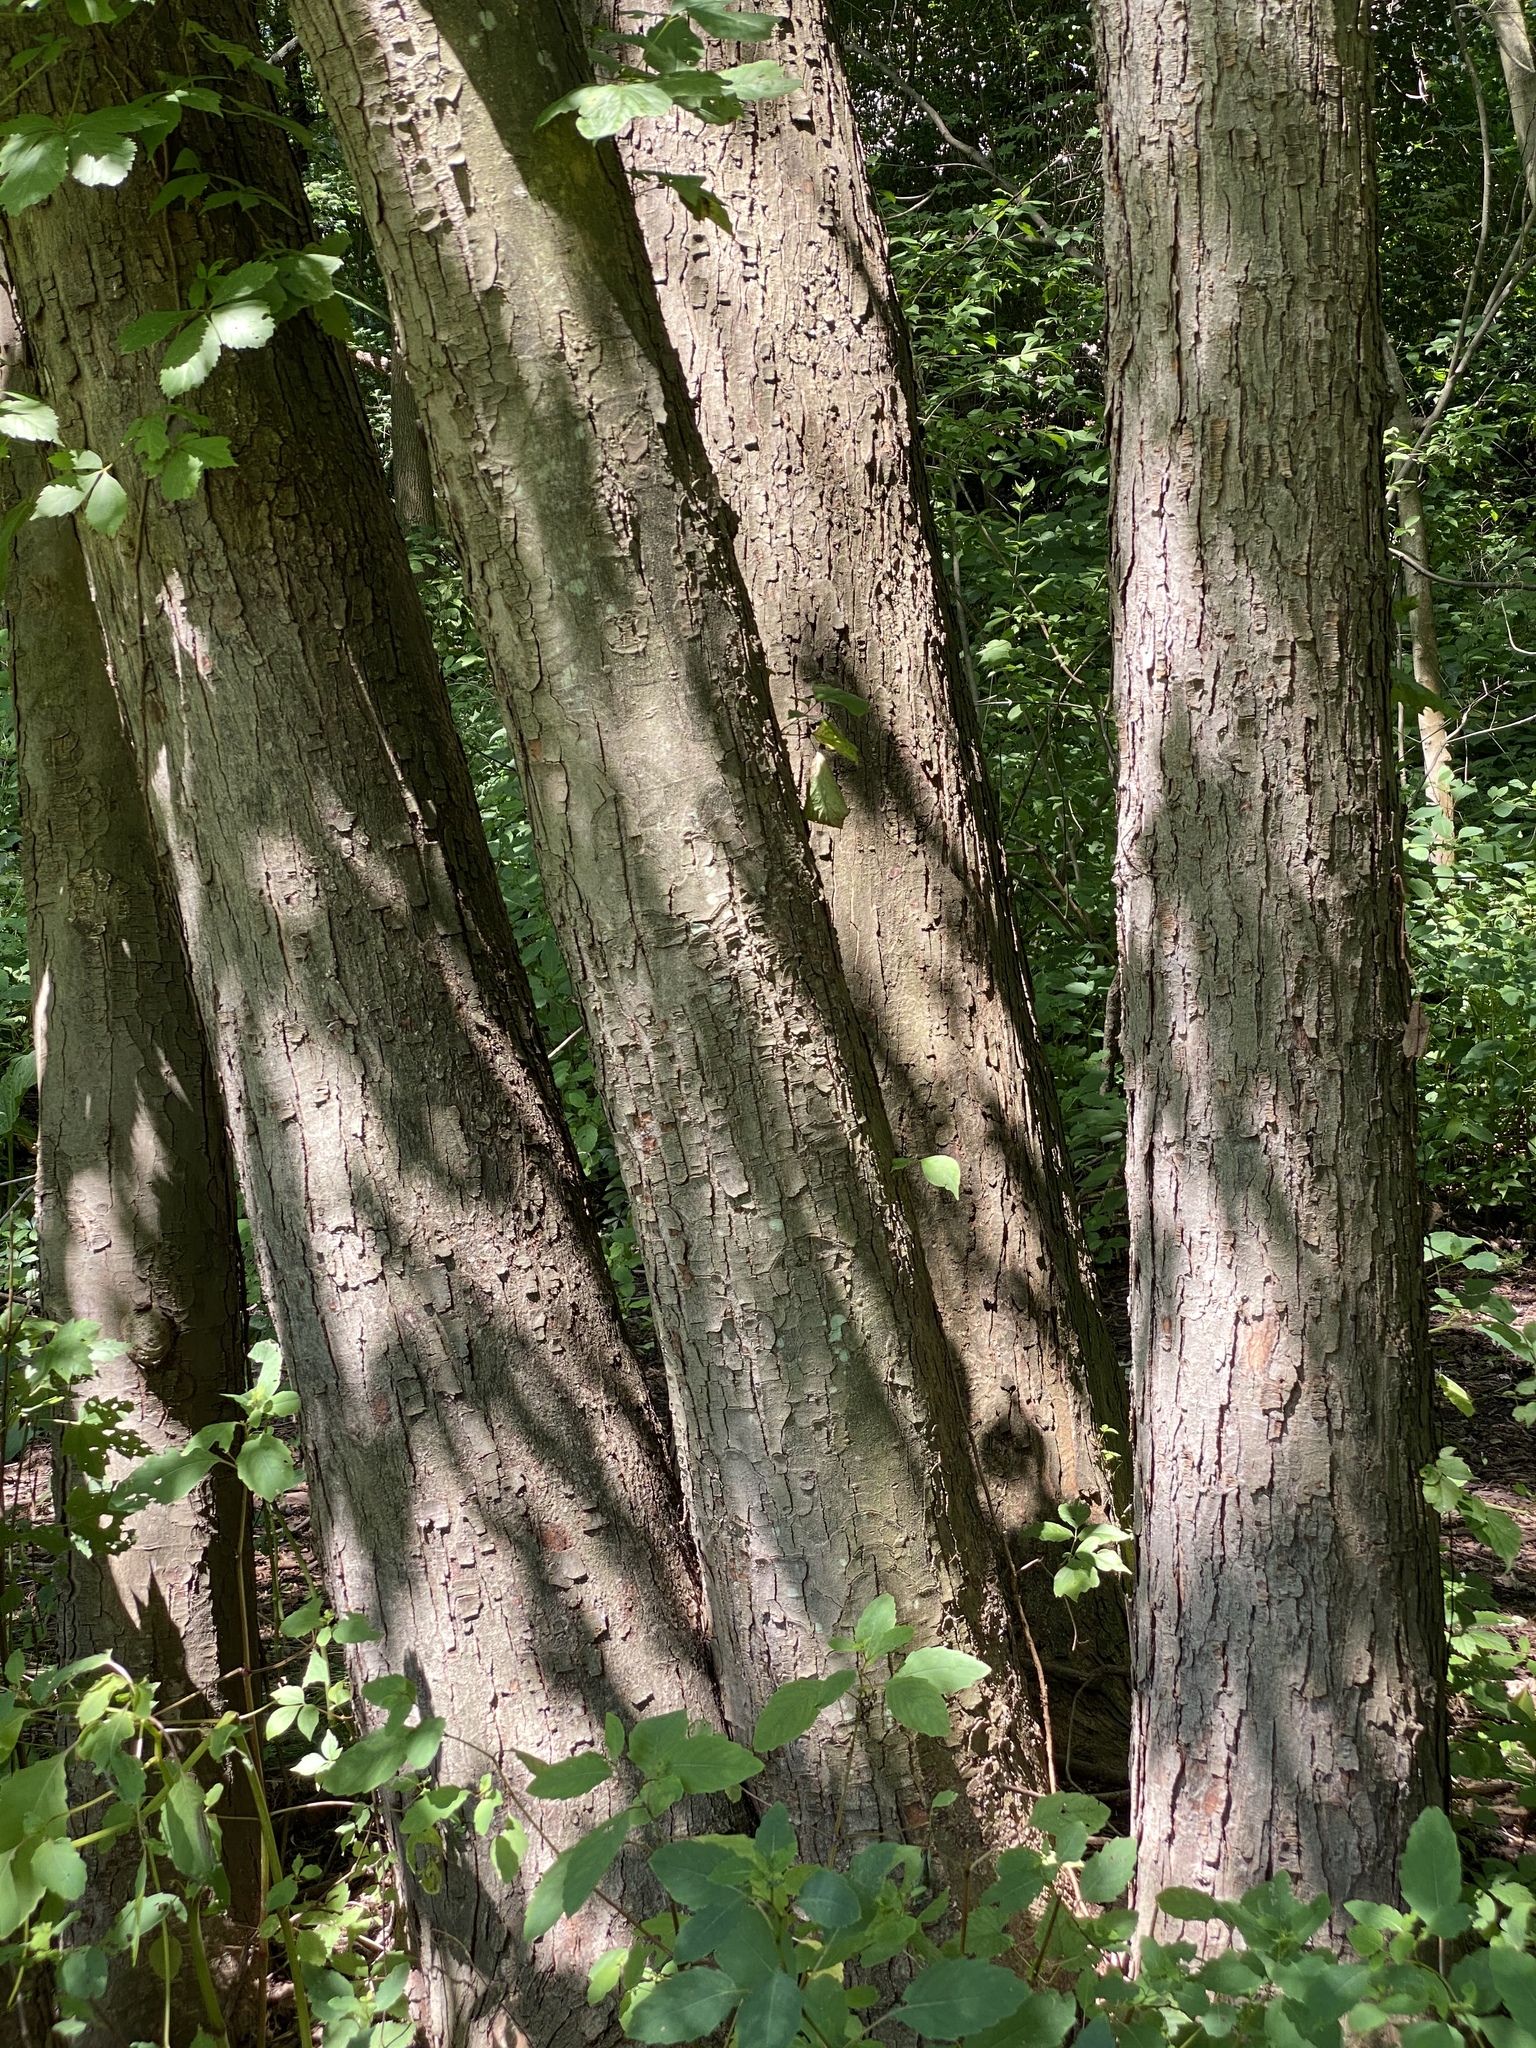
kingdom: Plantae
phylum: Tracheophyta
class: Magnoliopsida
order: Sapindales
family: Sapindaceae
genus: Acer
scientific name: Acer saccharinum
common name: Silver maple
